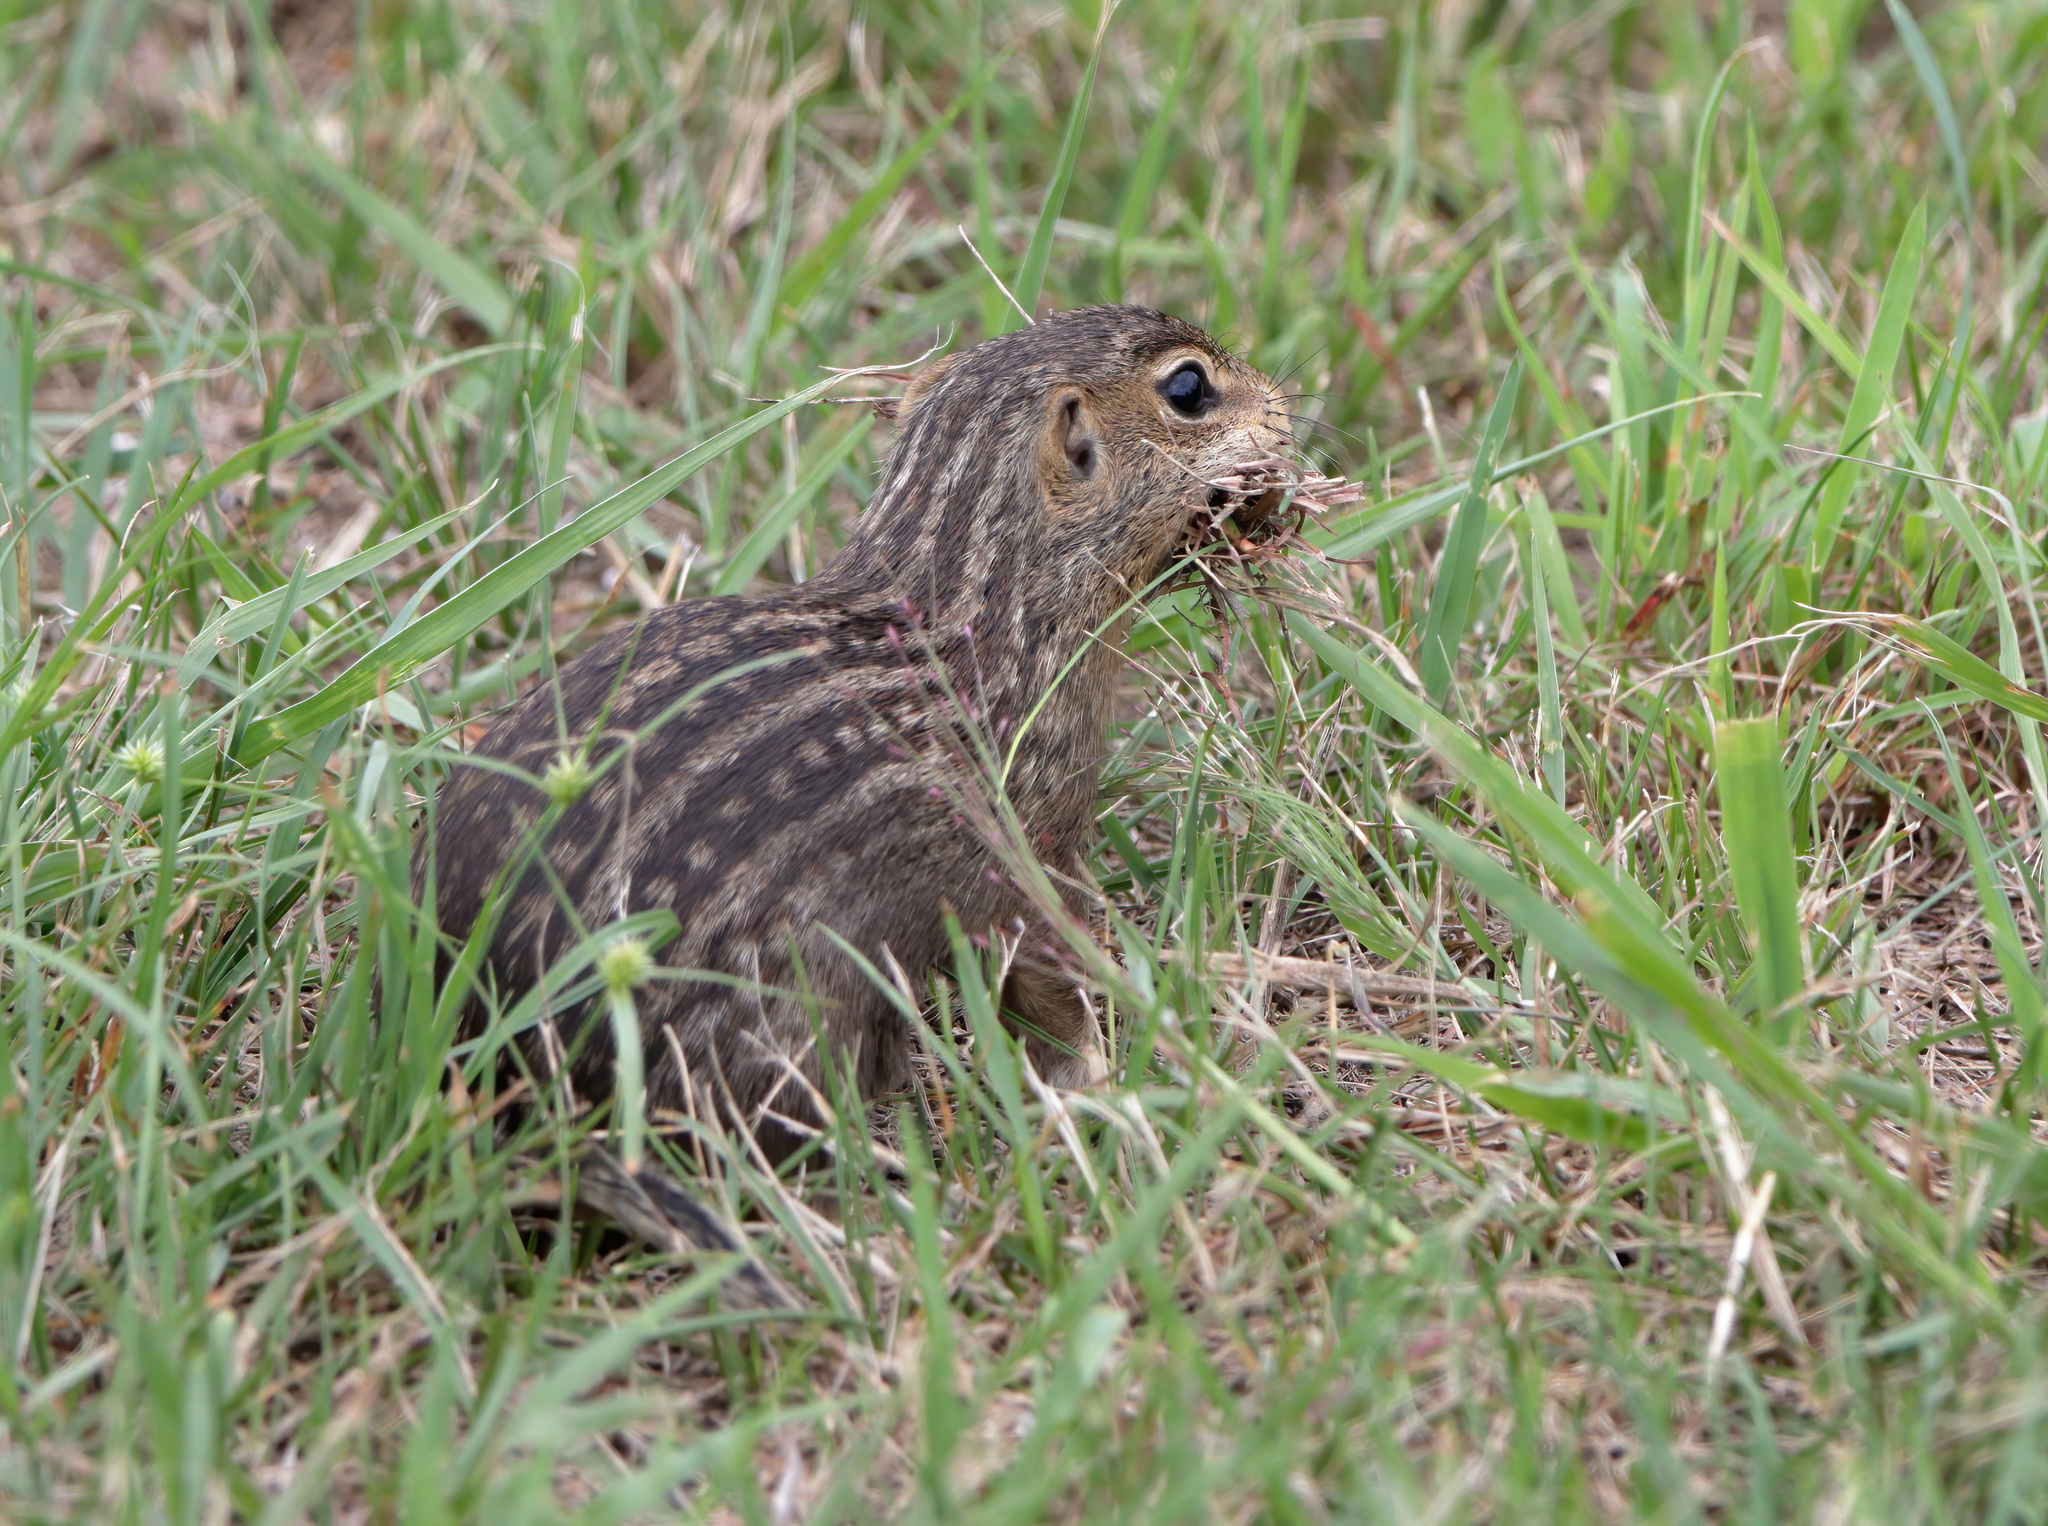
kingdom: Animalia
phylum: Chordata
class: Mammalia
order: Rodentia
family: Sciuridae
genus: Ictidomys
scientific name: Ictidomys tridecemlineatus
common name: Thirteen-lined ground squirrel
